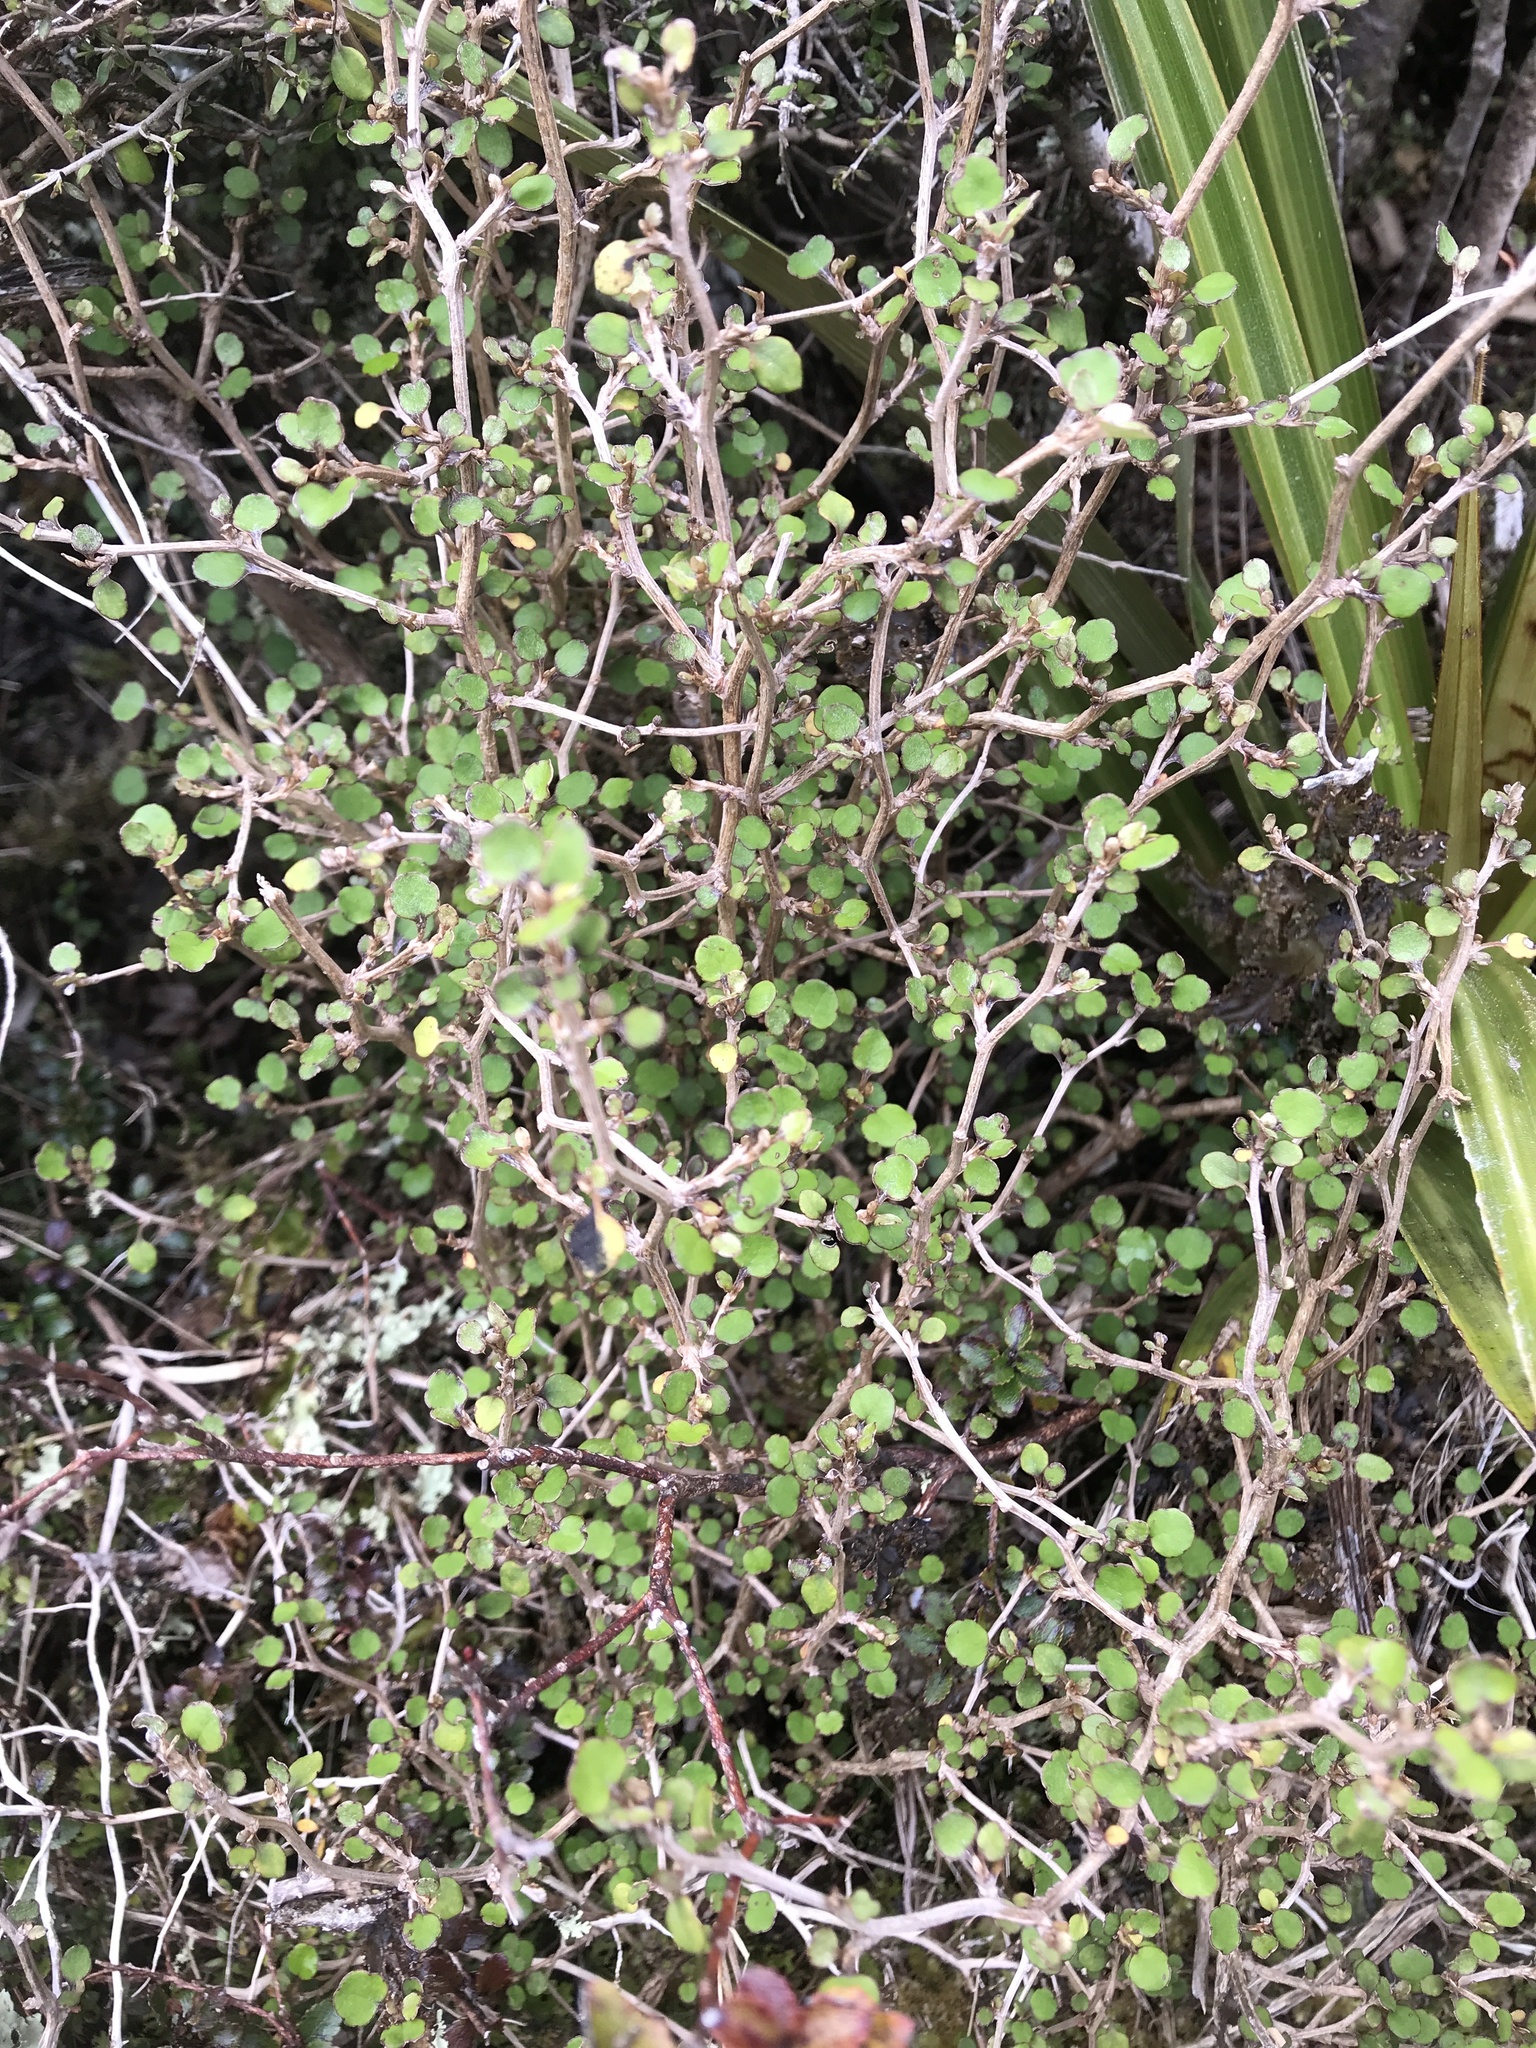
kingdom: Plantae
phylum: Tracheophyta
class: Magnoliopsida
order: Asterales
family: Asteraceae
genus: Olearia
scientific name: Olearia quinquevulnera
